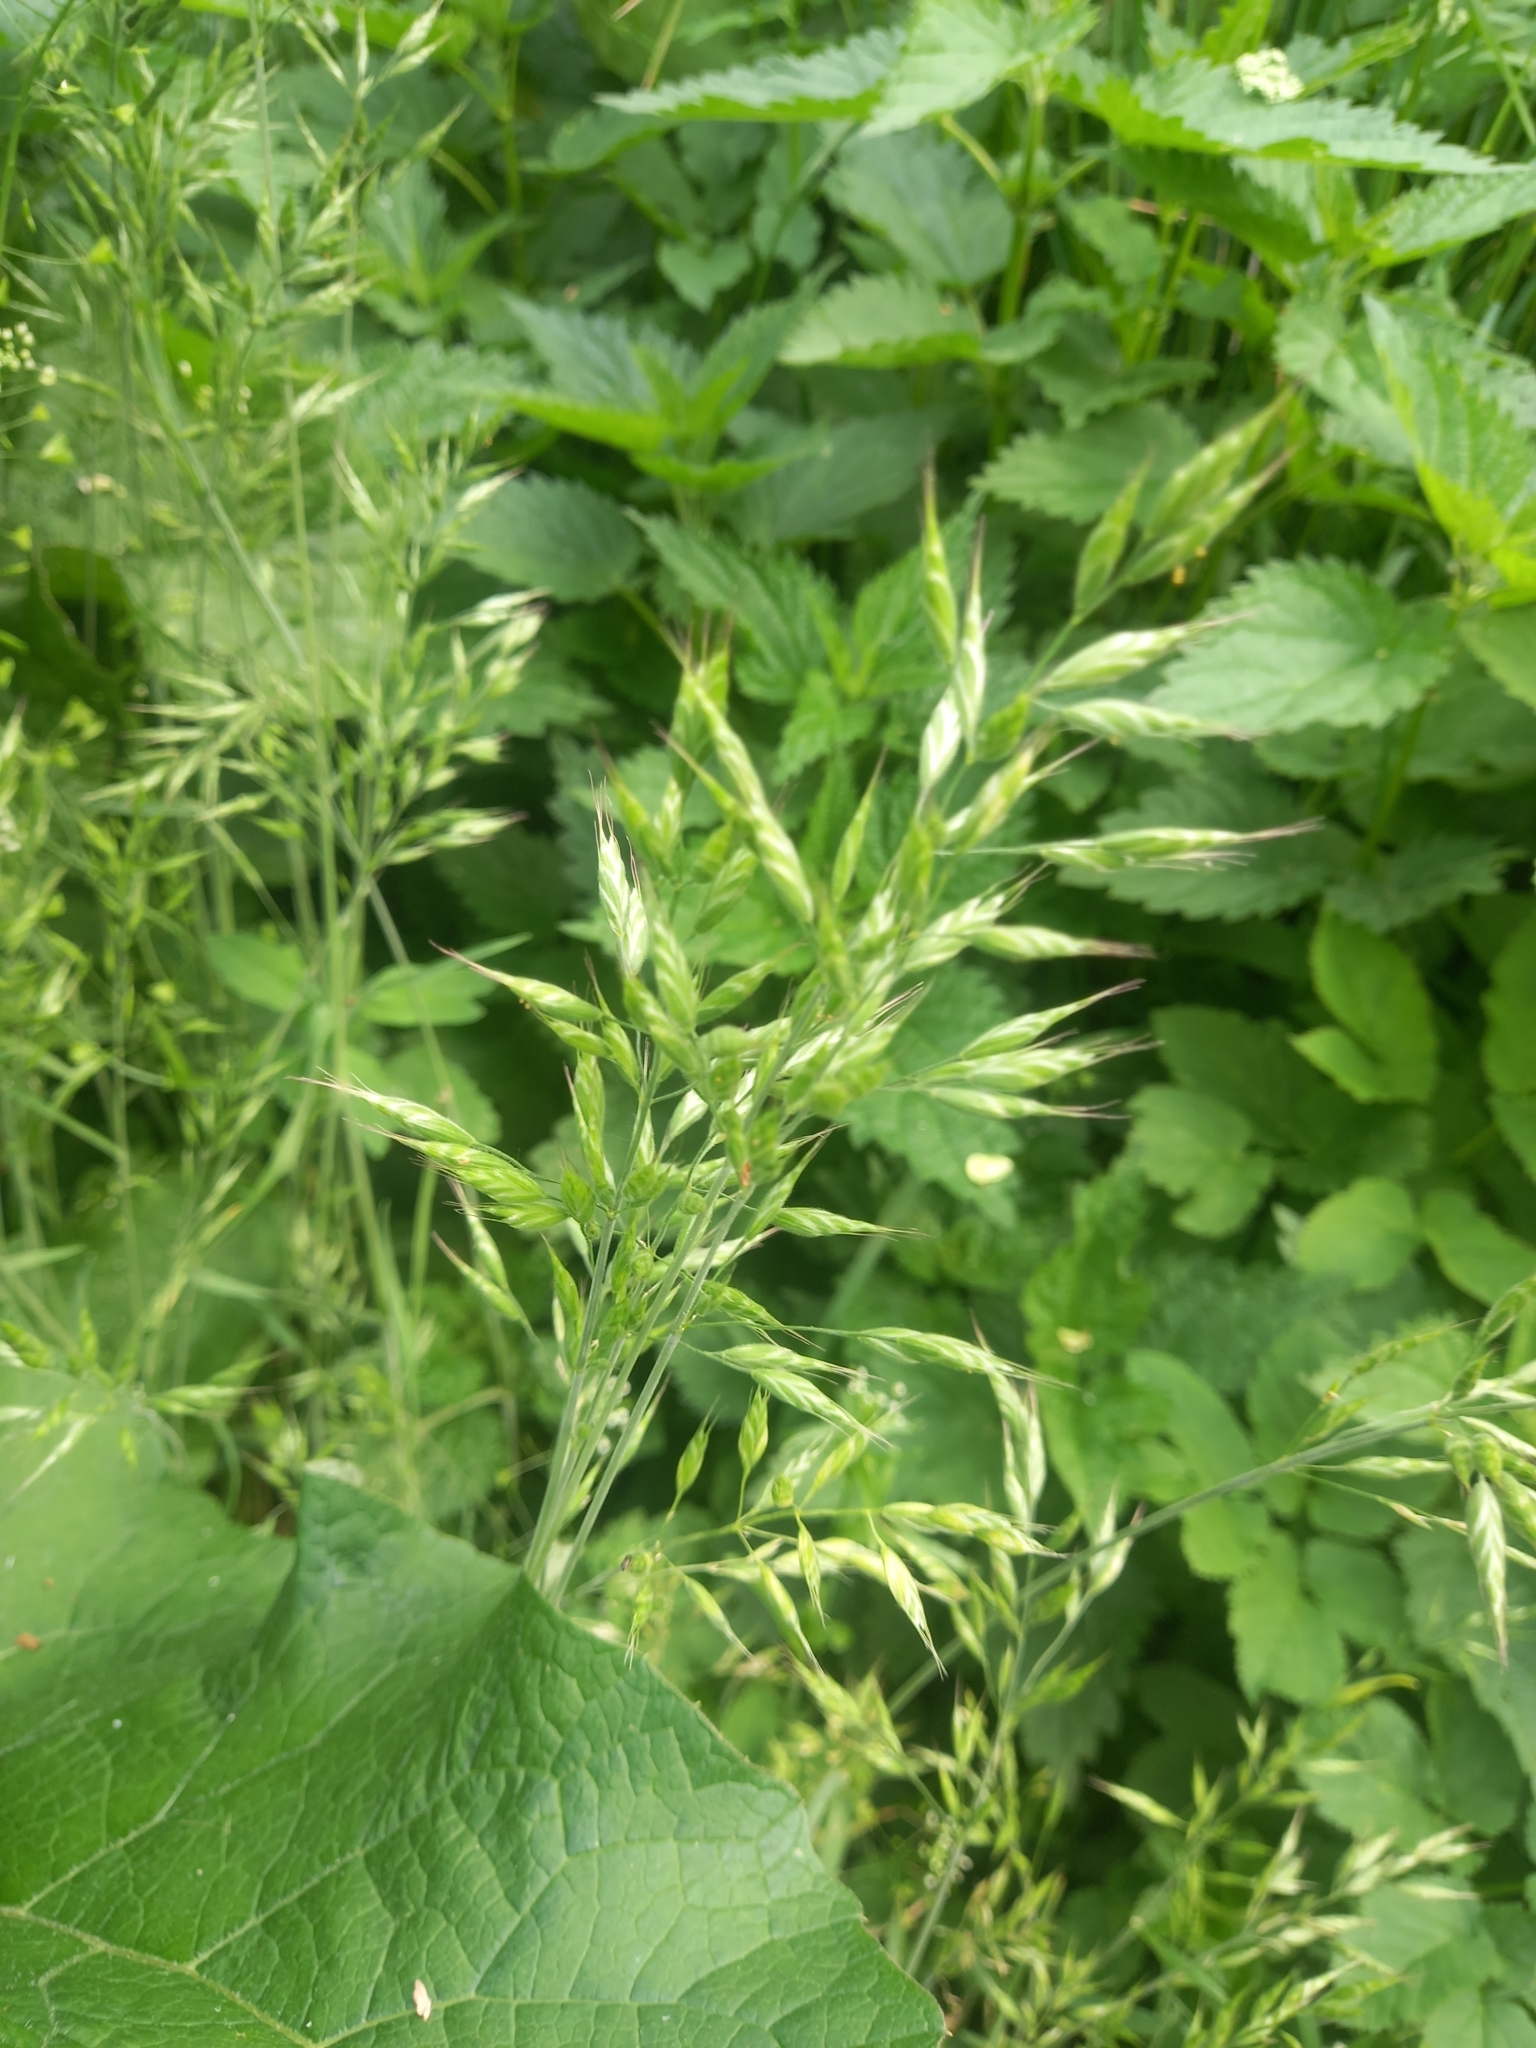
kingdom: Plantae
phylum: Tracheophyta
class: Liliopsida
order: Poales
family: Poaceae
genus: Bromus
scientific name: Bromus hordeaceus
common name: Soft brome
